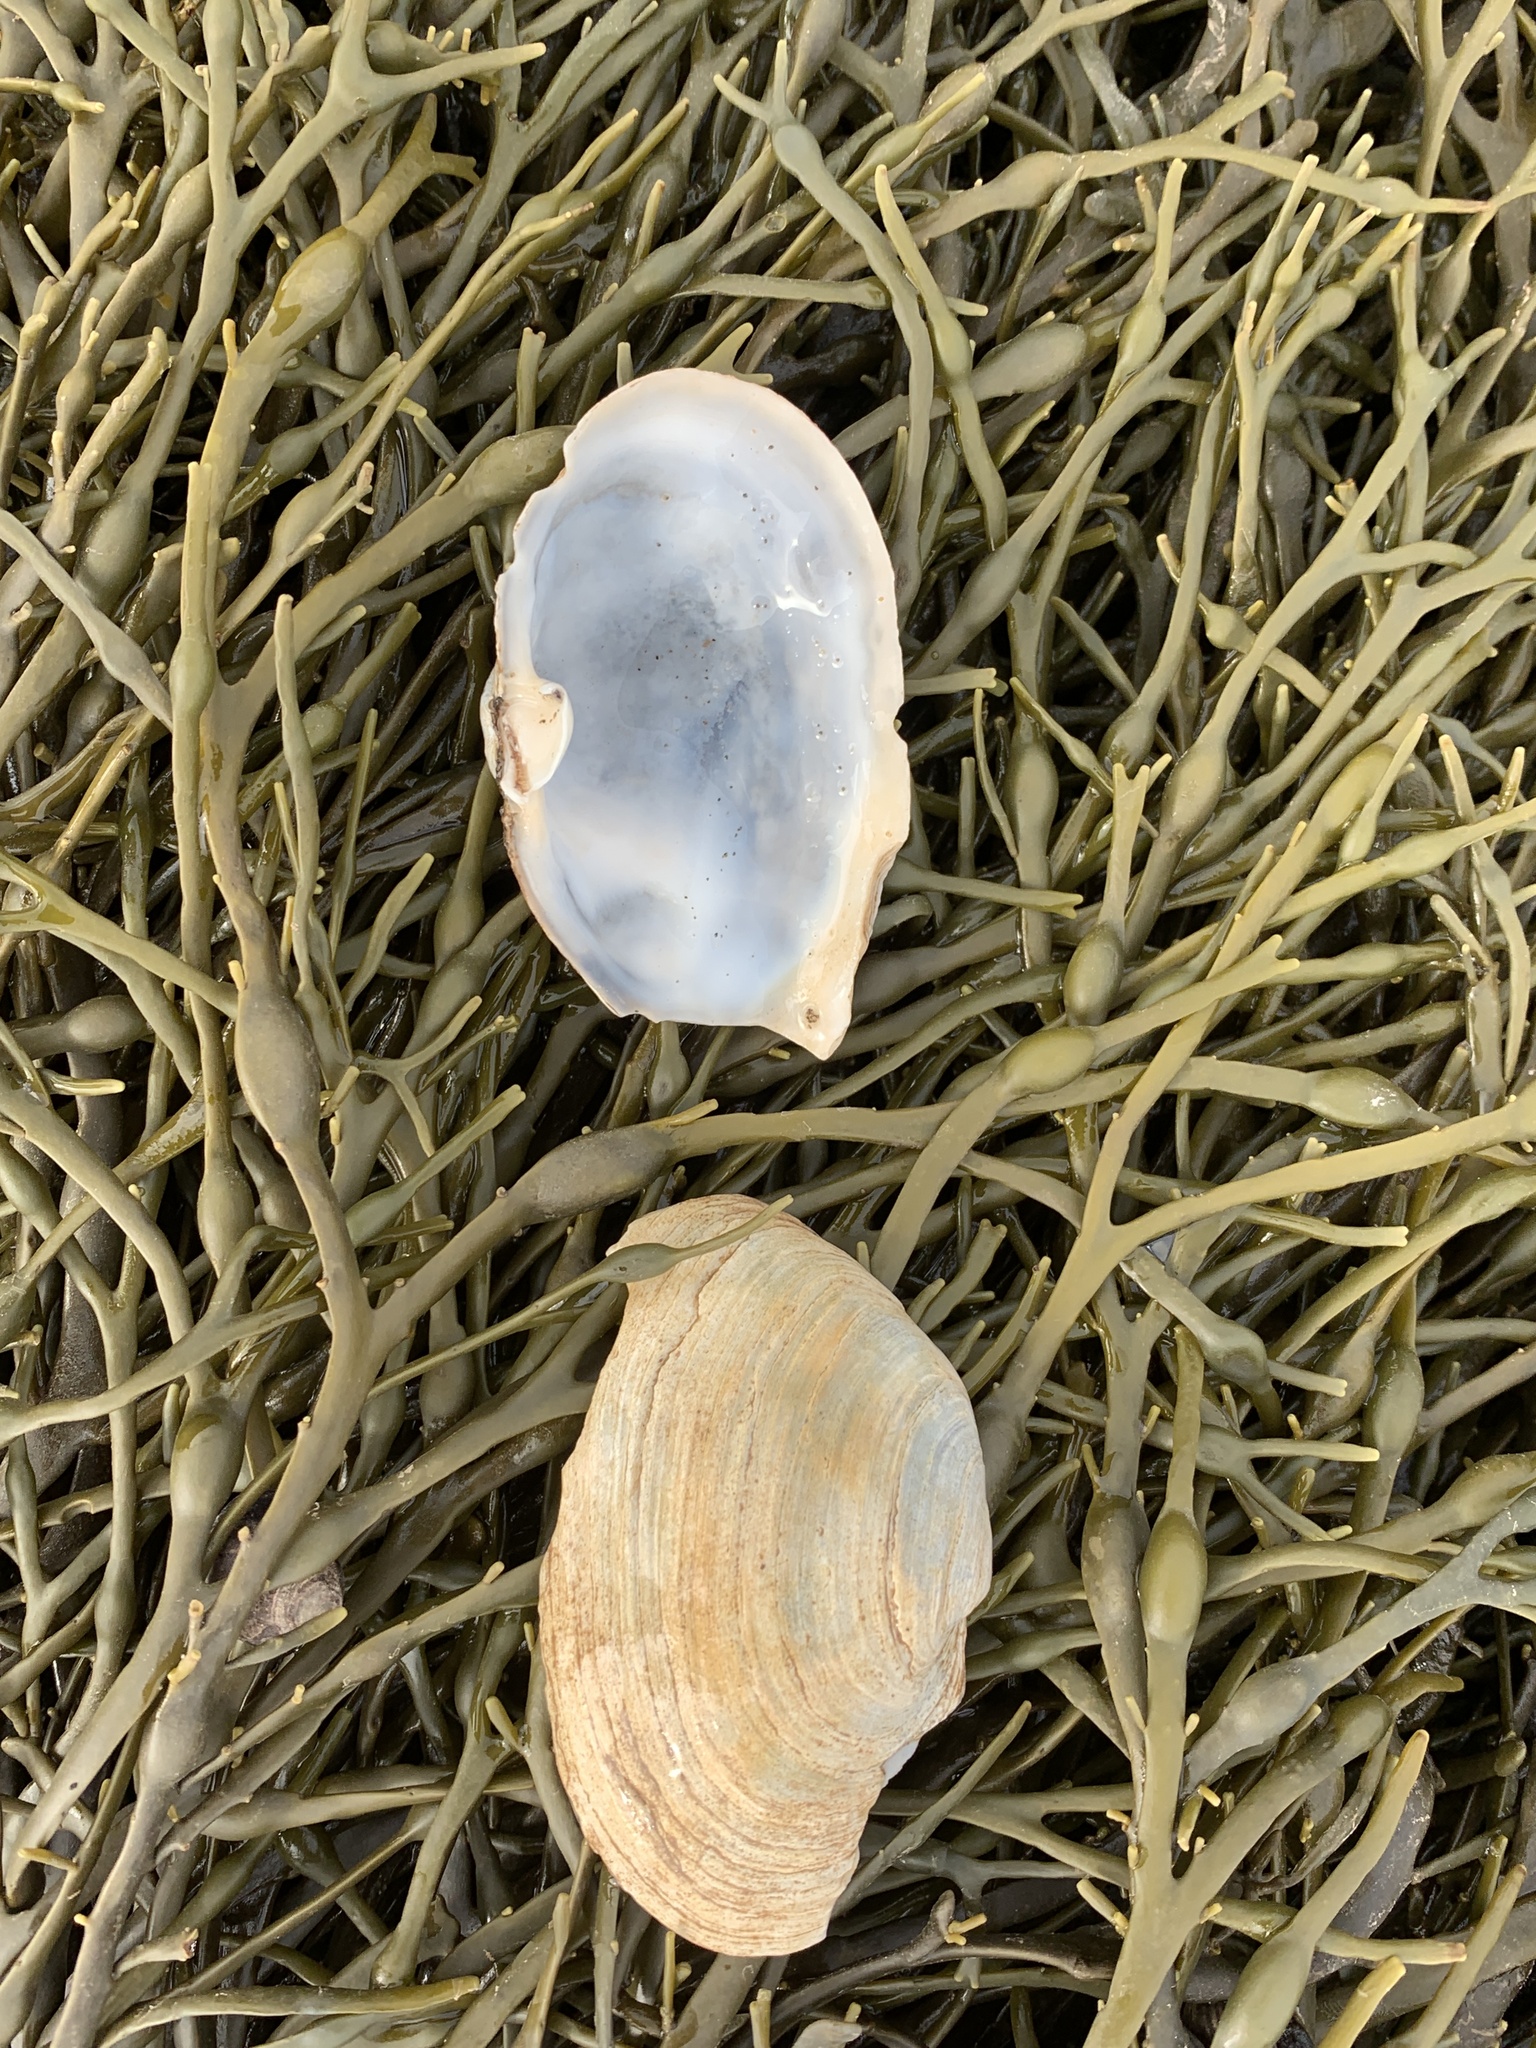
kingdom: Animalia
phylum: Mollusca
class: Bivalvia
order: Myida
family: Myidae
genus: Mya
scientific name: Mya arenaria
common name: Soft-shelled clam
